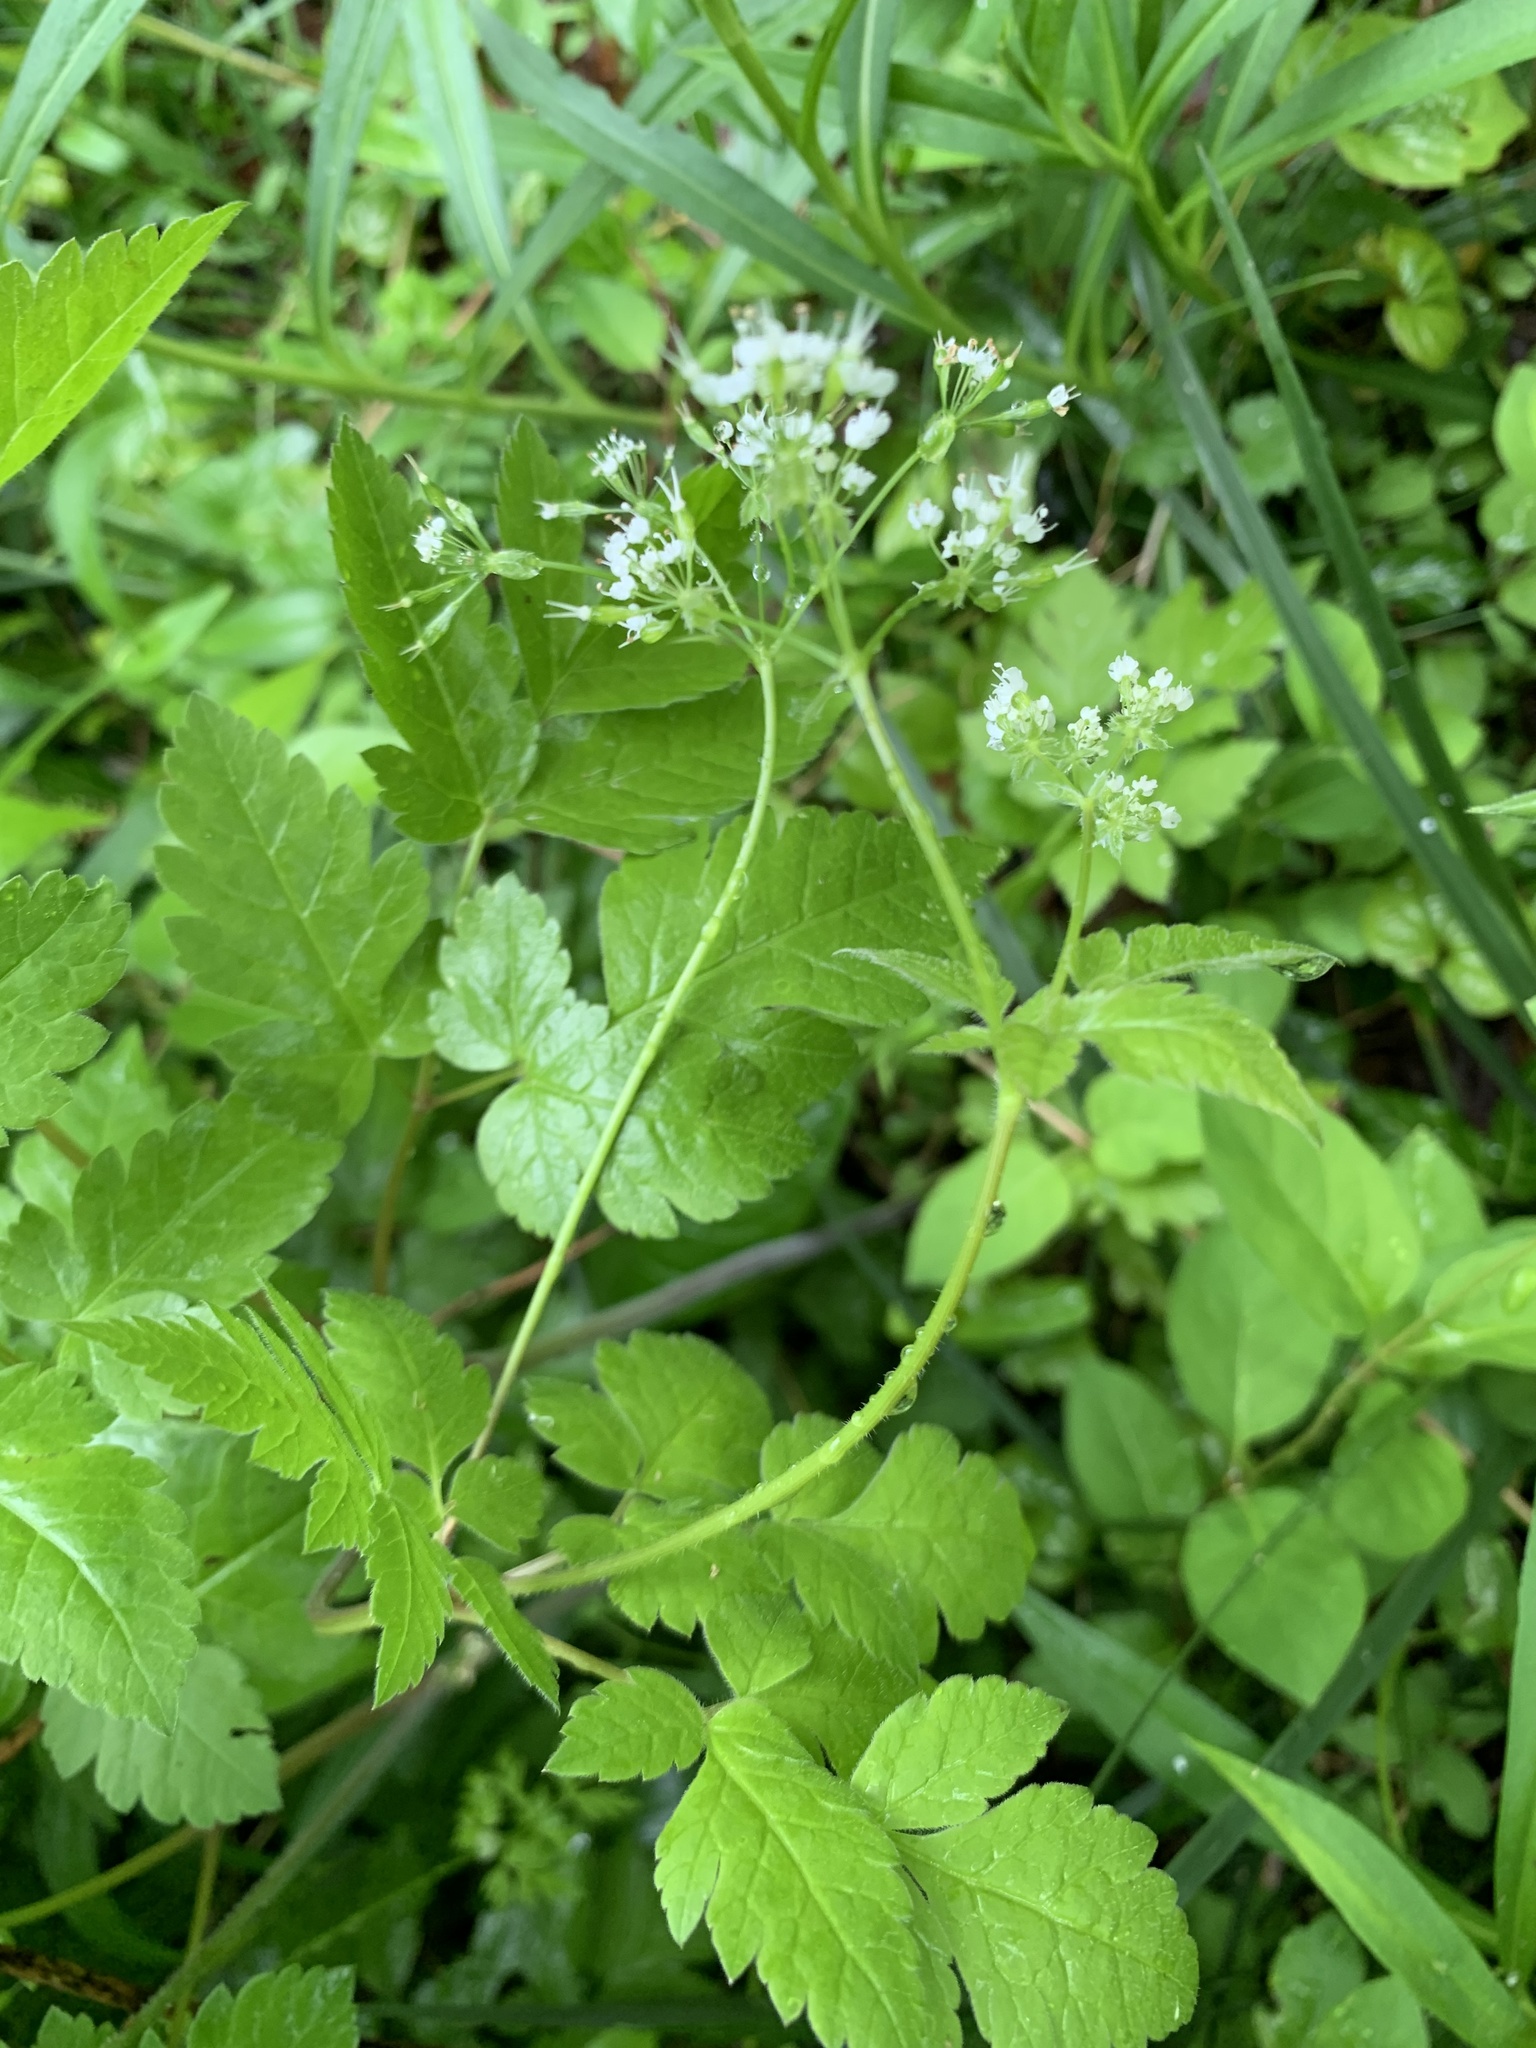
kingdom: Plantae
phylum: Tracheophyta
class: Magnoliopsida
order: Apiales
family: Apiaceae
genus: Osmorhiza
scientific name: Osmorhiza longistylis
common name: Smooth sweet cicely
